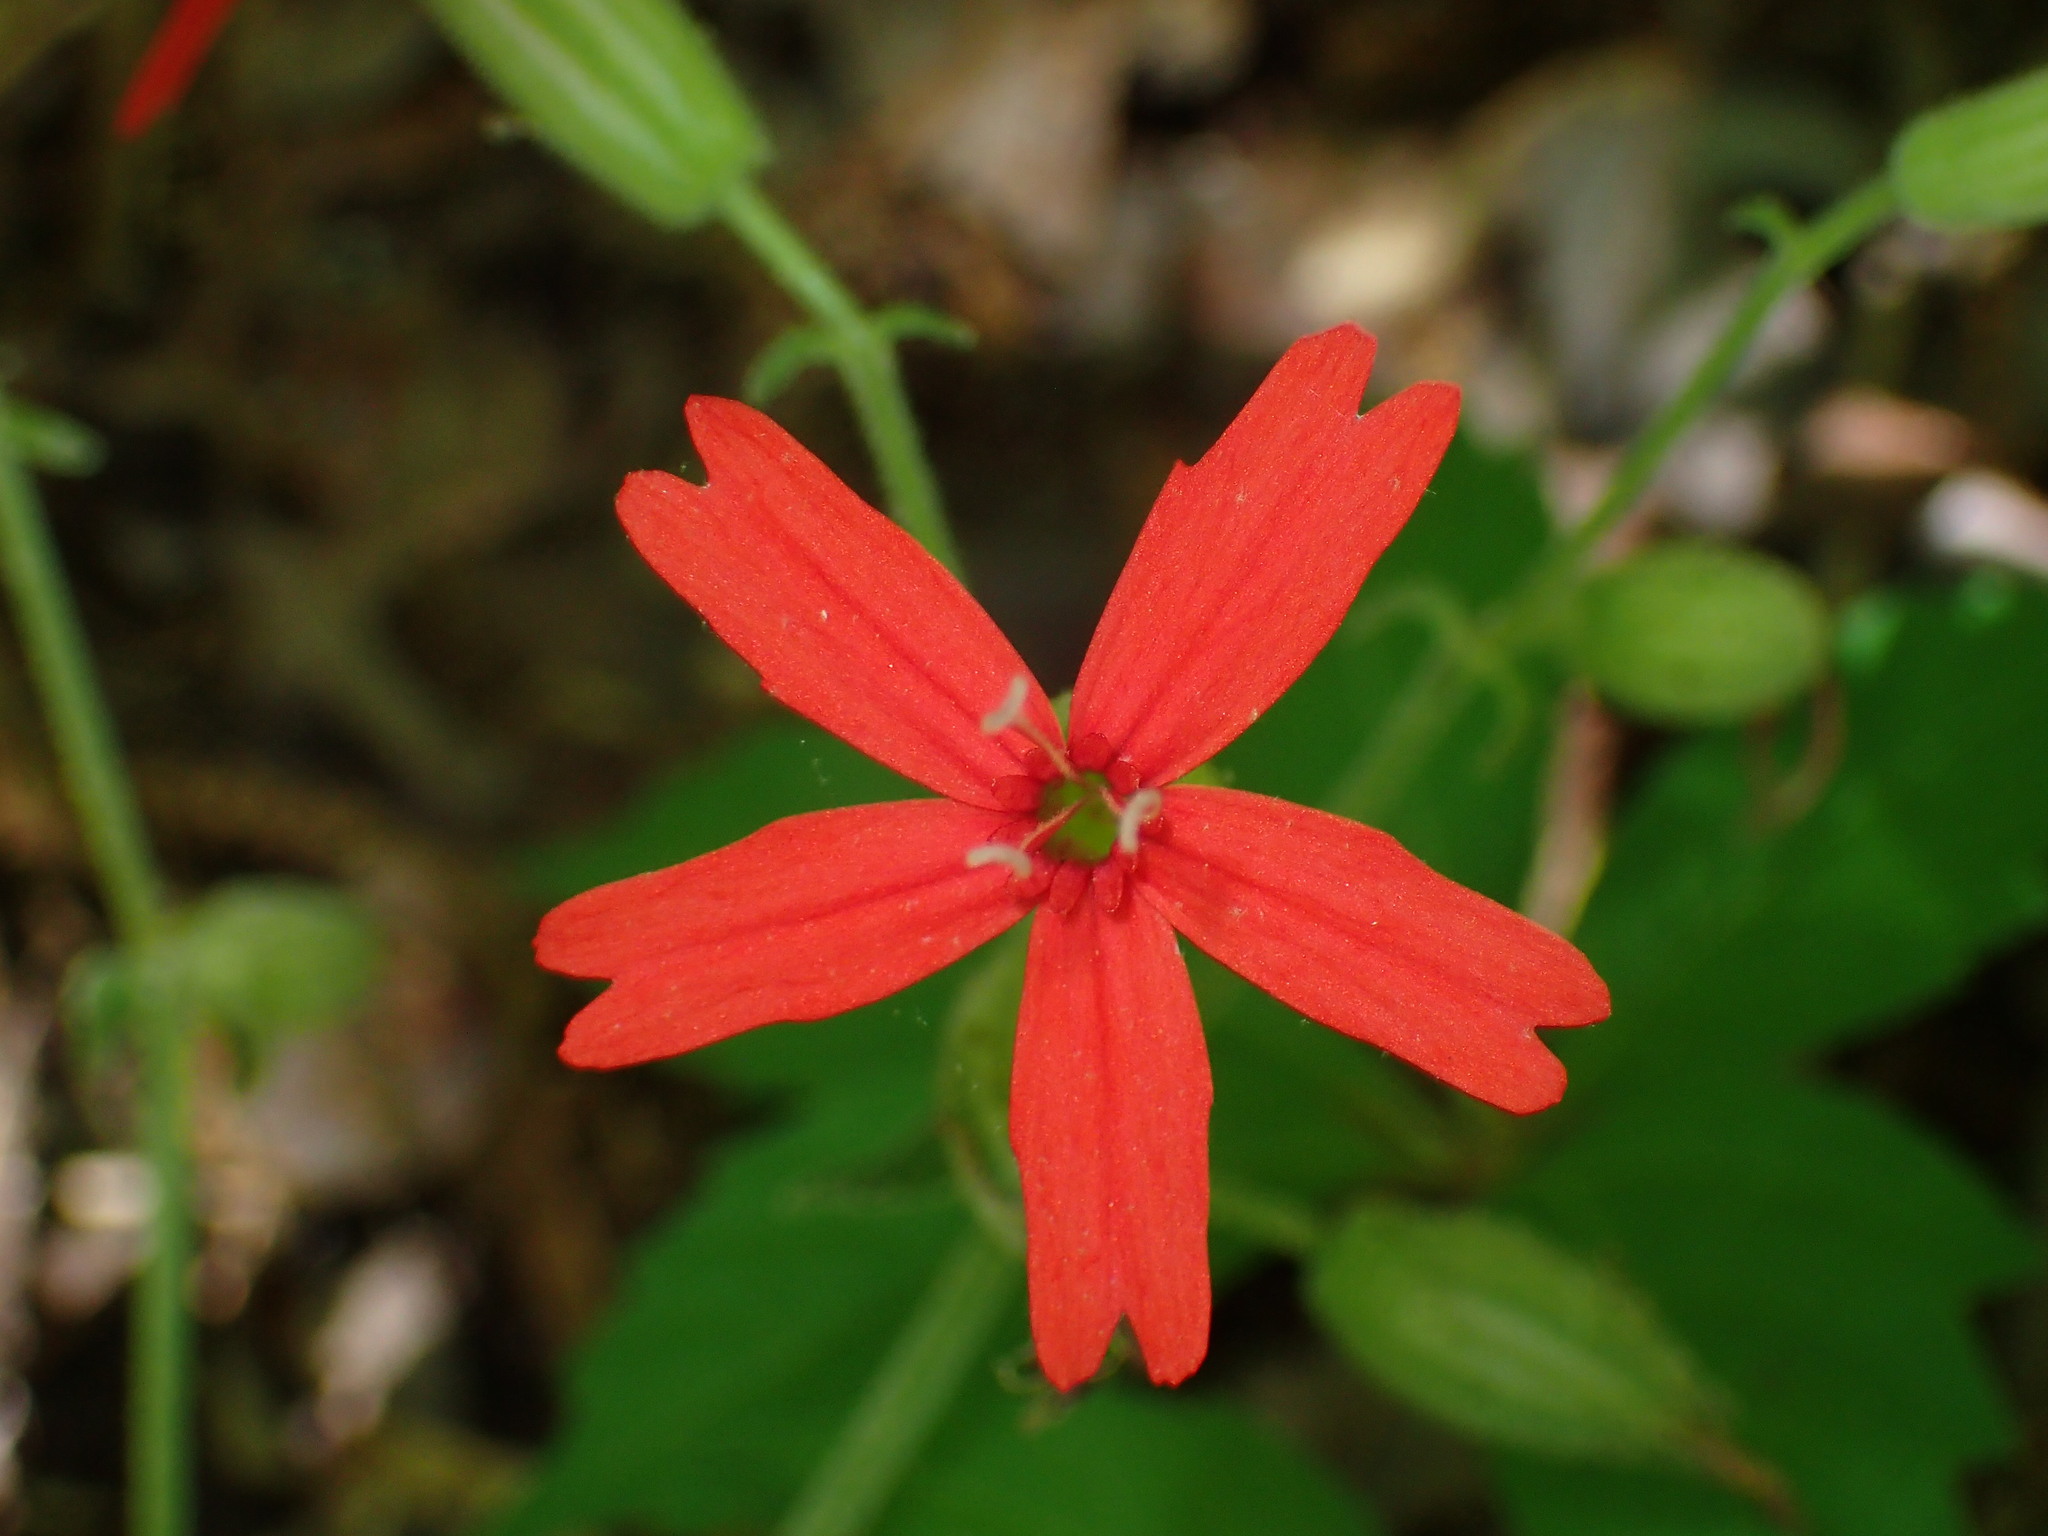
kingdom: Plantae
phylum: Tracheophyta
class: Magnoliopsida
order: Caryophyllales
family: Caryophyllaceae
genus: Silene
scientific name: Silene virginica
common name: Fire-pink
